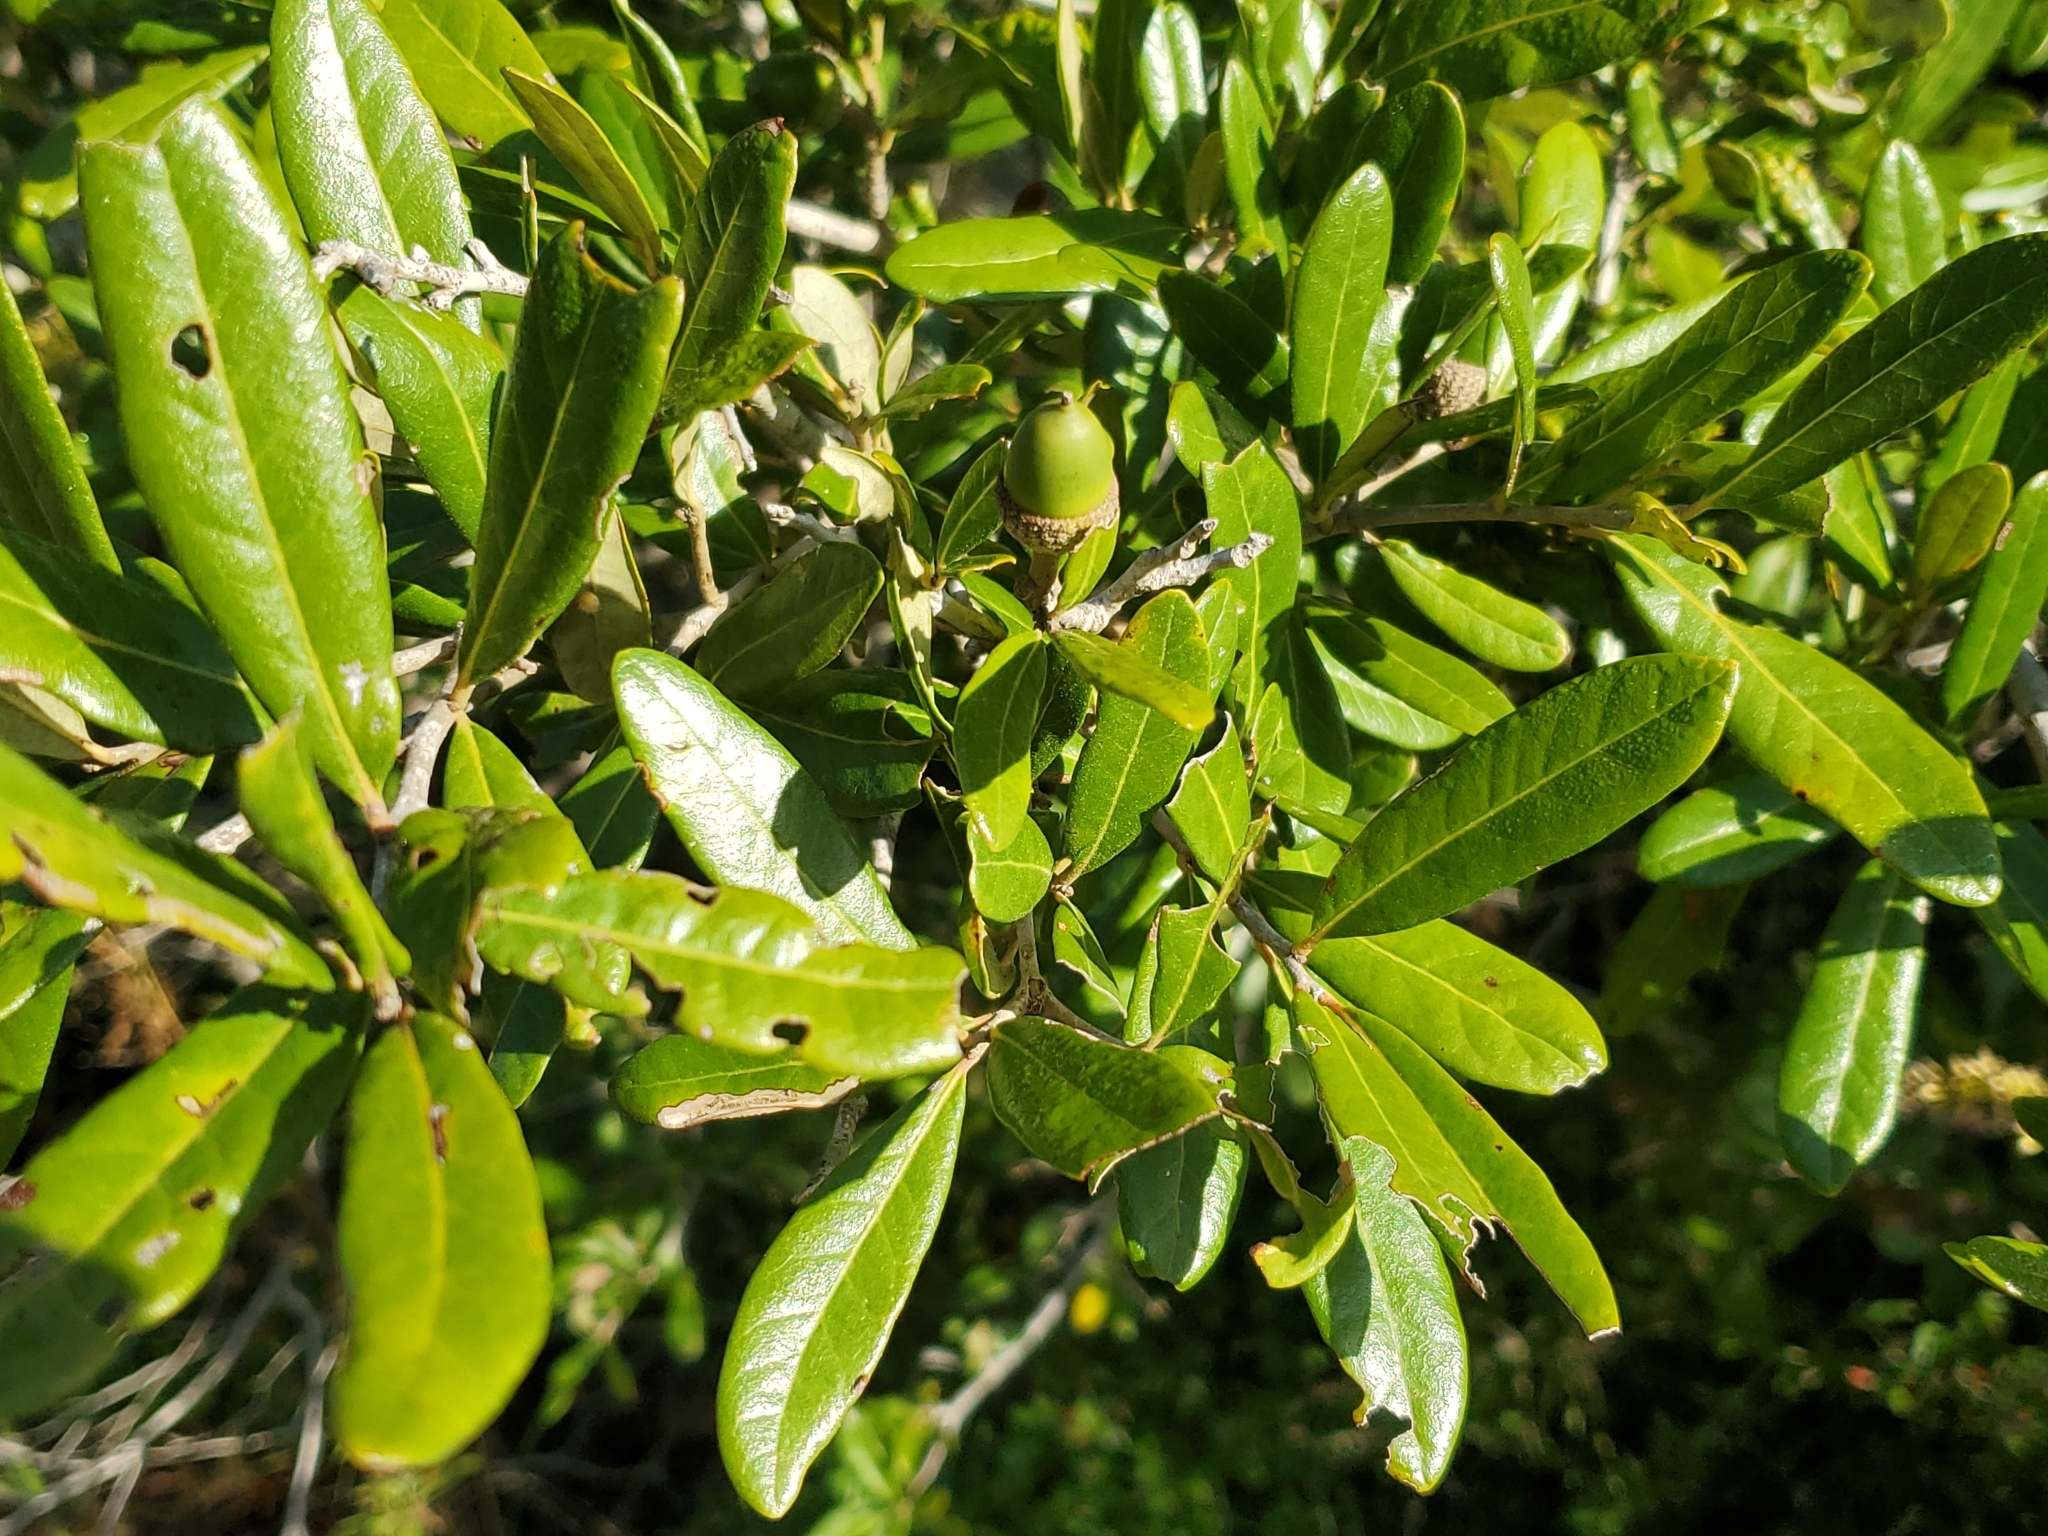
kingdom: Plantae
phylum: Tracheophyta
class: Magnoliopsida
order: Fabales
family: Fabaceae
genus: Vigna
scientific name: Vigna luteola
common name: Hairypod cowpea
